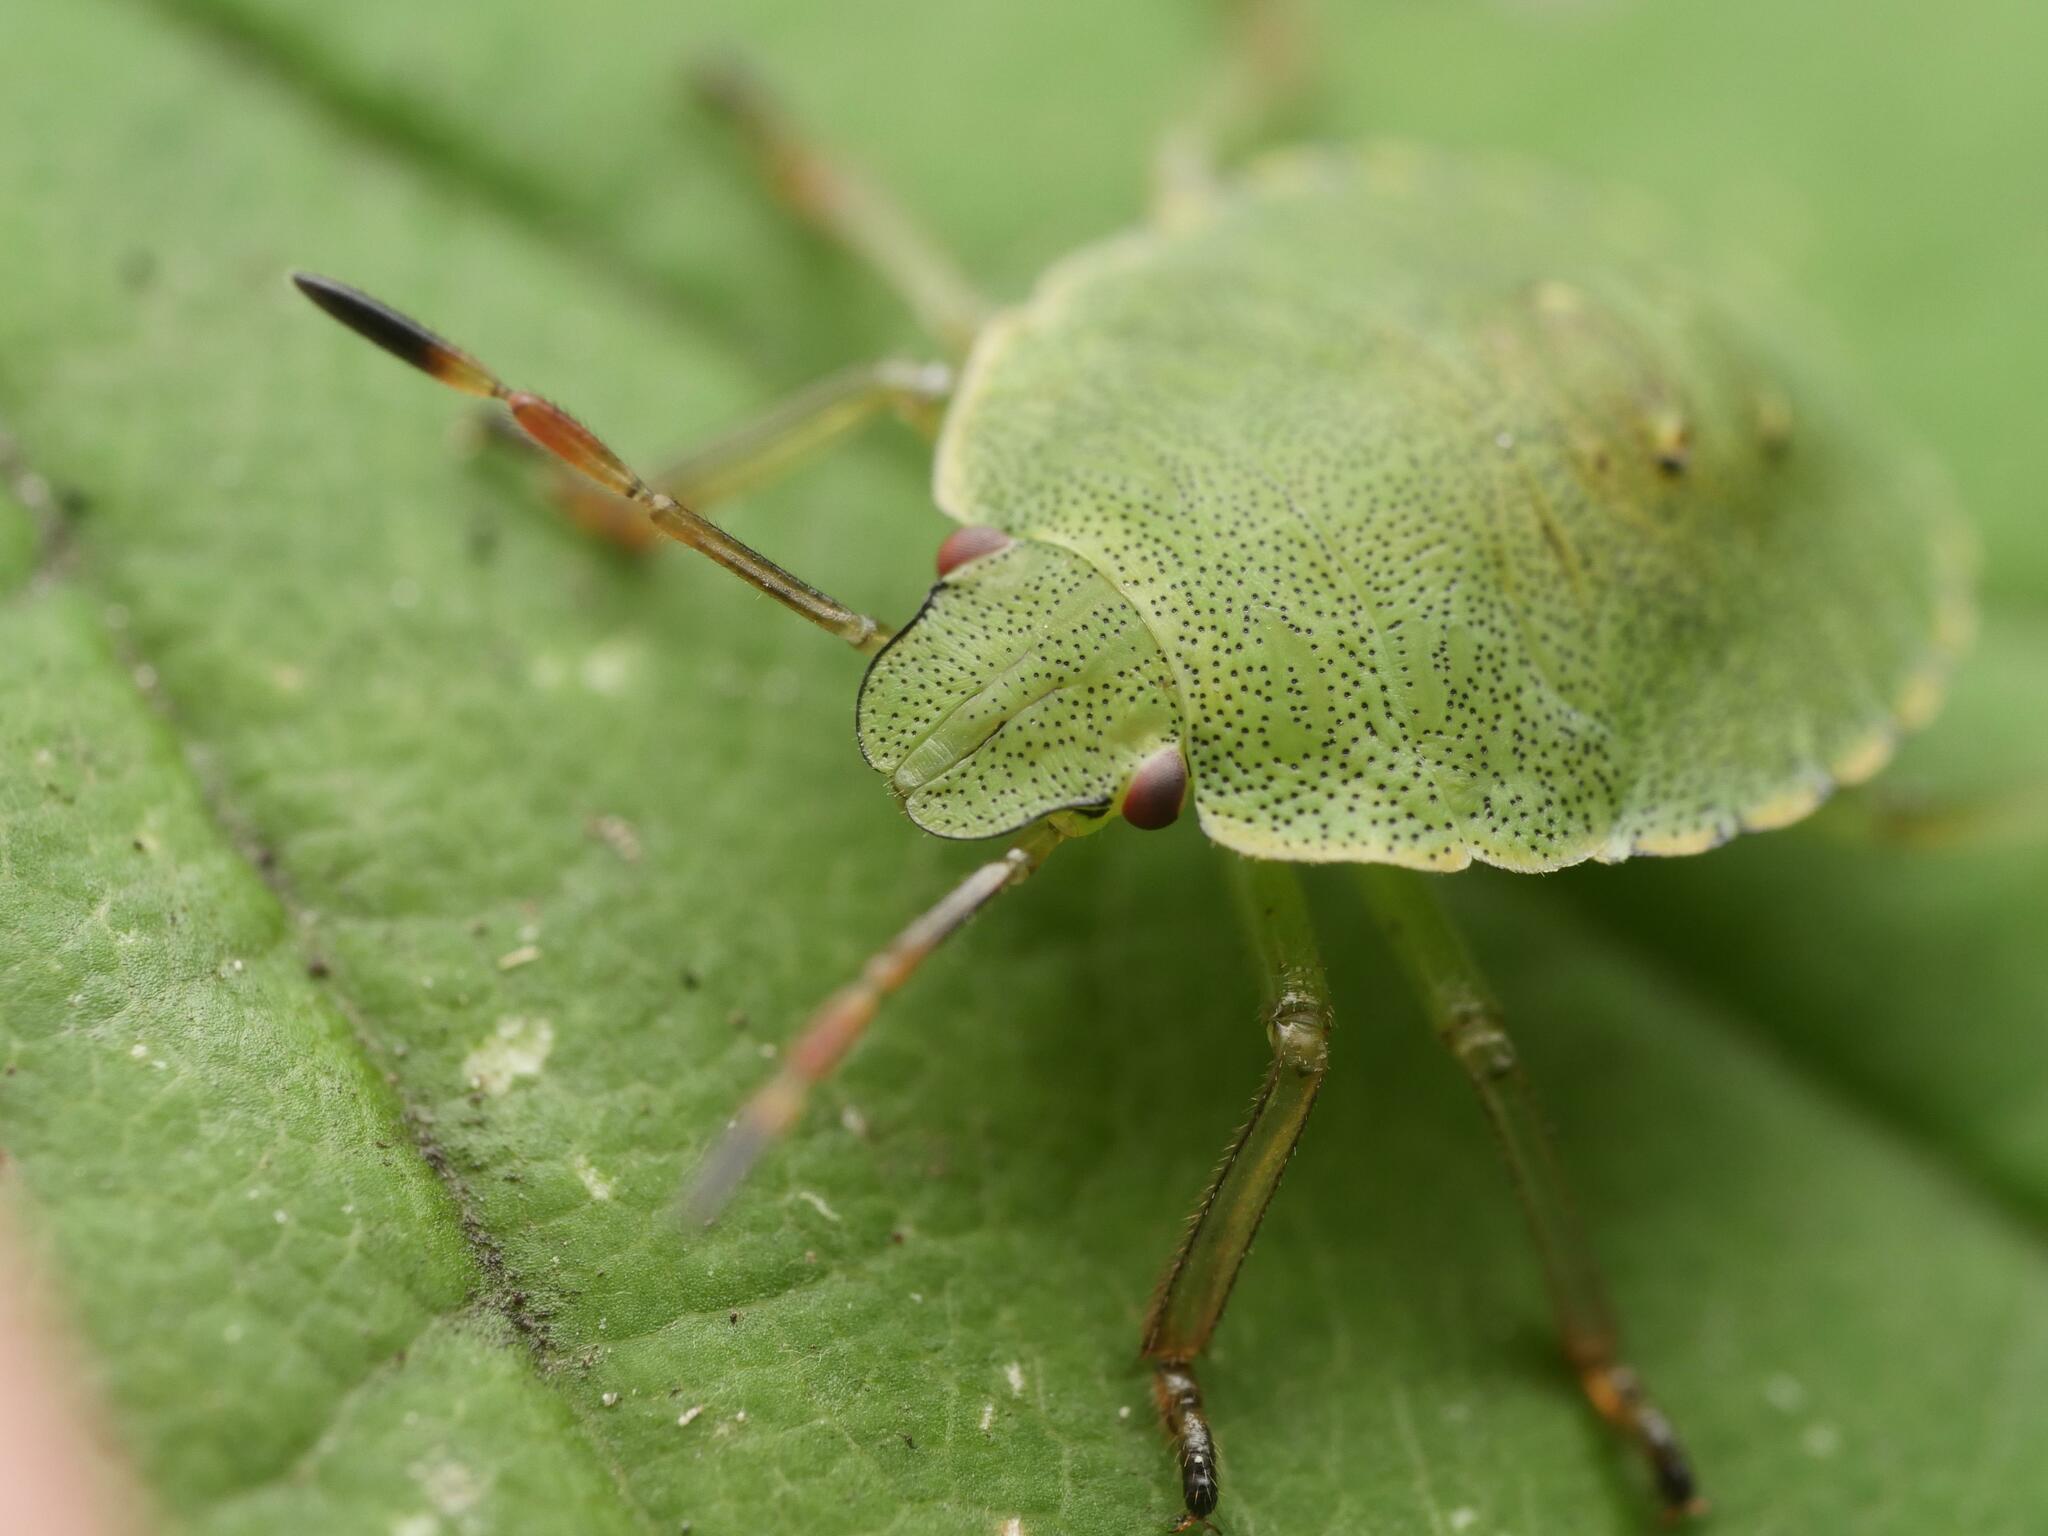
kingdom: Animalia
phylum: Arthropoda
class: Insecta
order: Hemiptera
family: Pentatomidae
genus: Palomena
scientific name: Palomena prasina
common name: Green shieldbug
